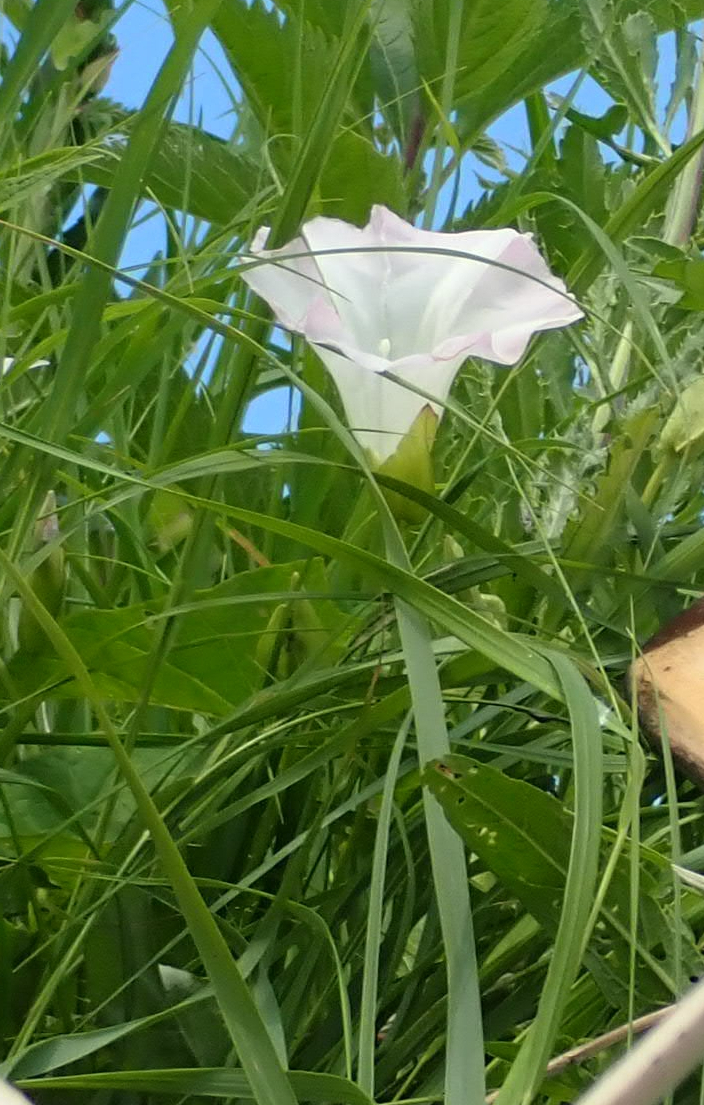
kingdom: Plantae
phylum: Tracheophyta
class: Magnoliopsida
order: Solanales
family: Convolvulaceae
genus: Calystegia
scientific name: Calystegia sepium
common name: Hedge bindweed
